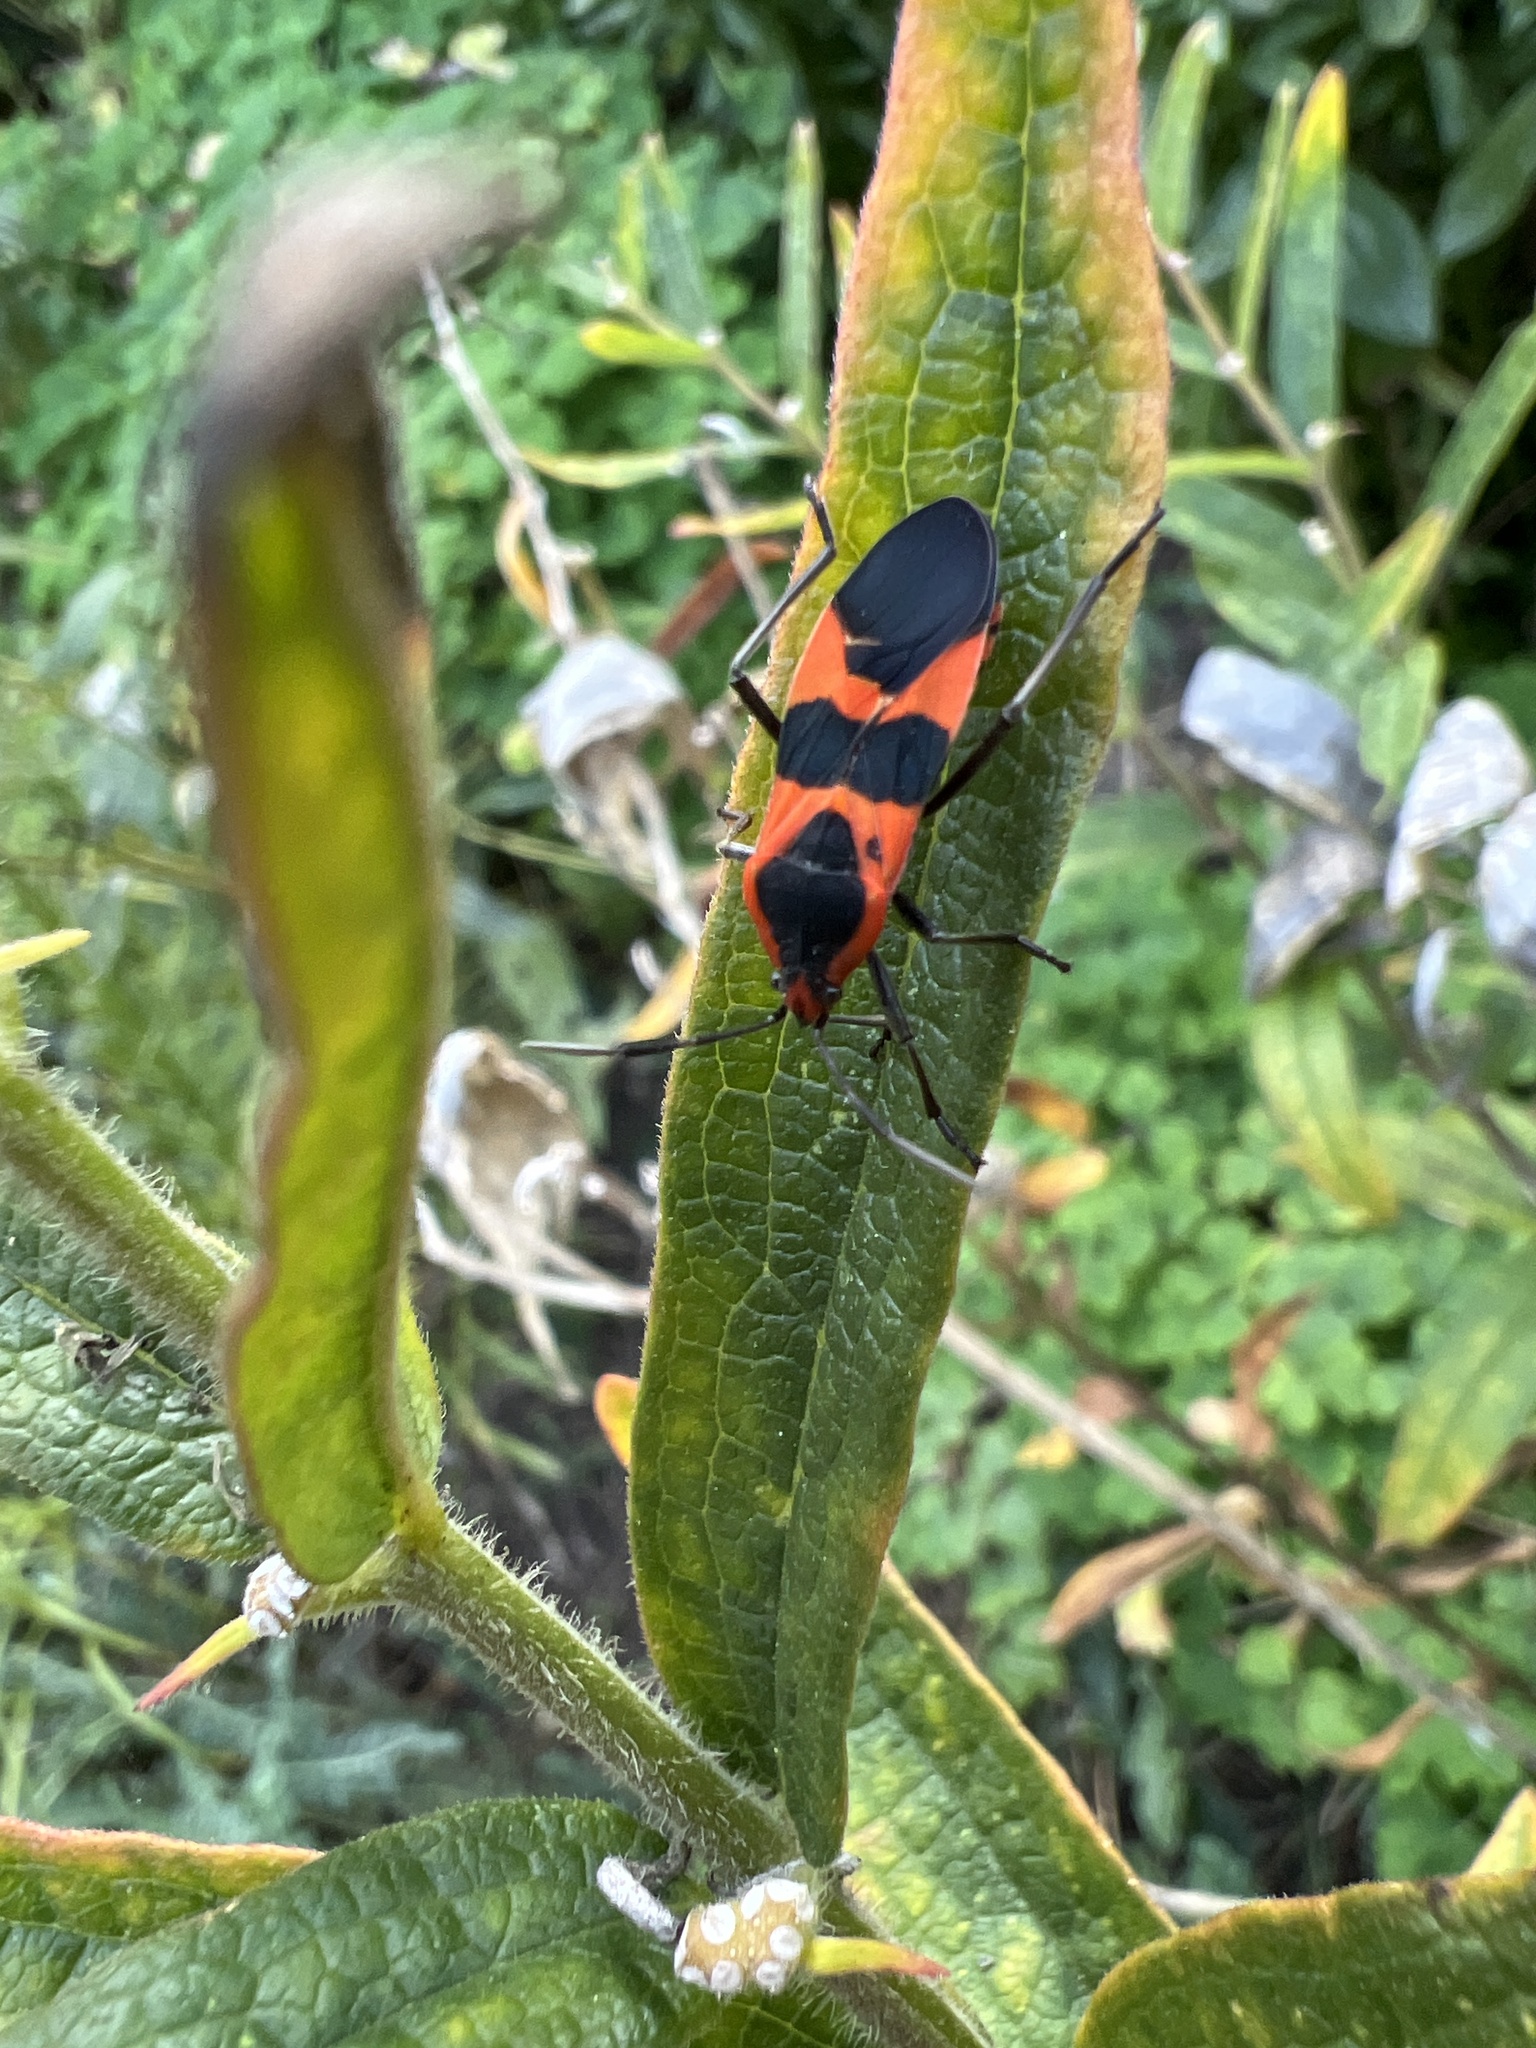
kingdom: Animalia
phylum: Arthropoda
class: Insecta
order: Hemiptera
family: Lygaeidae
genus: Oncopeltus
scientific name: Oncopeltus fasciatus
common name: Large milkweed bug
